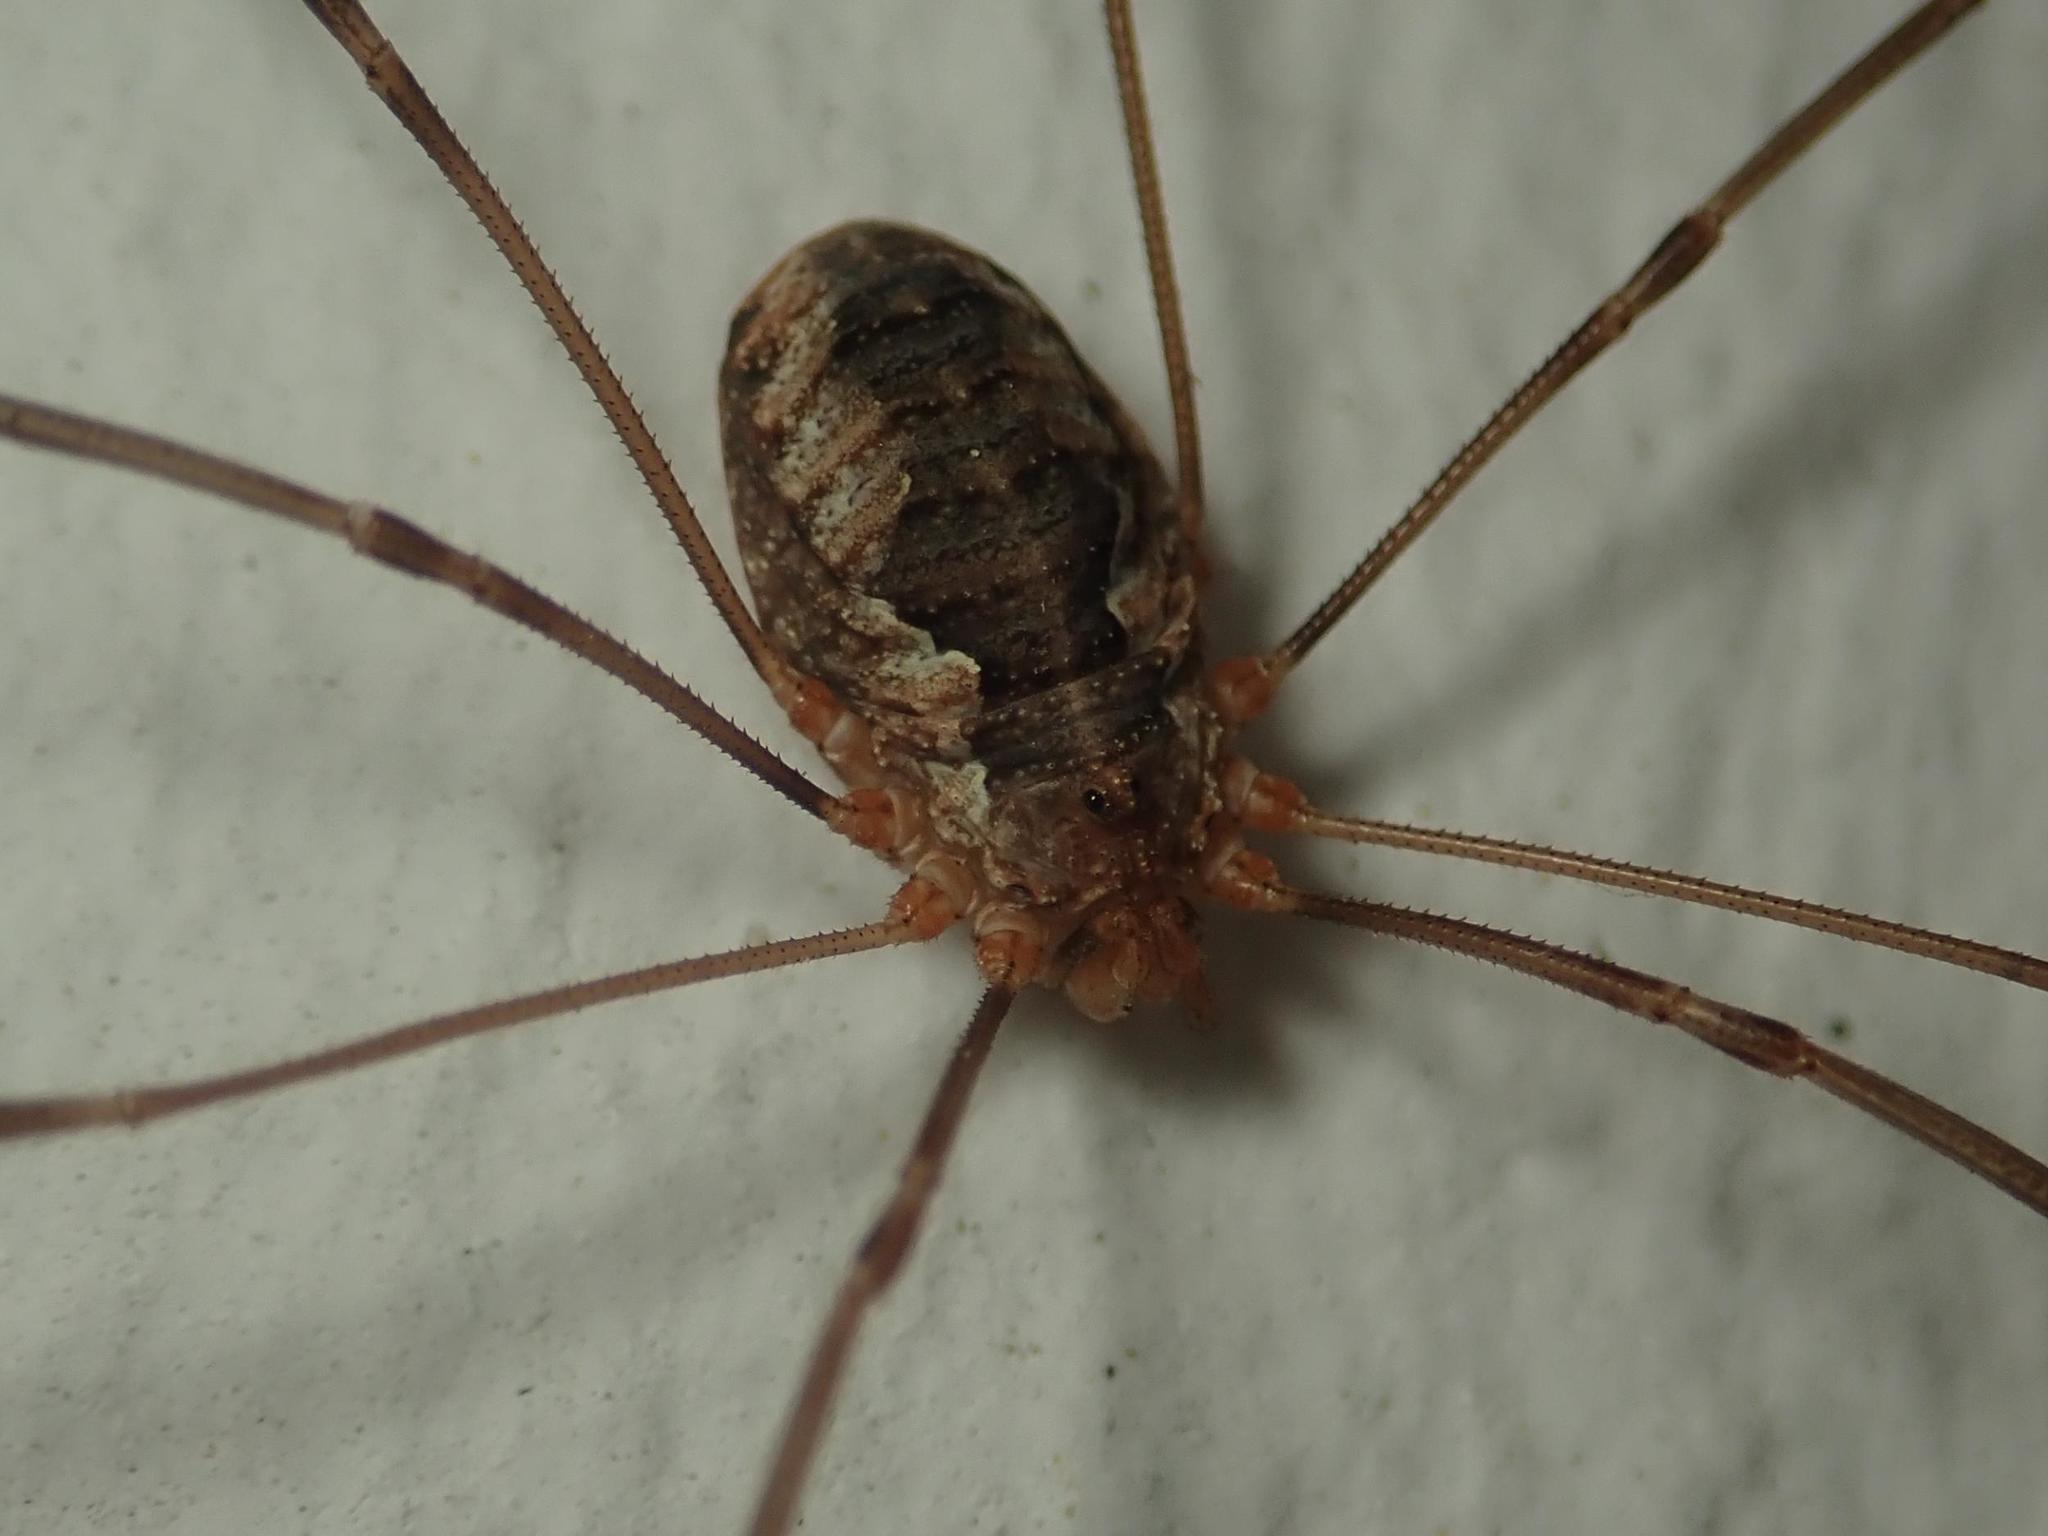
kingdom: Animalia
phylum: Arthropoda
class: Arachnida
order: Opiliones
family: Phalangiidae
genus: Phalangium
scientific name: Phalangium opilio
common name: Daddy longleg
